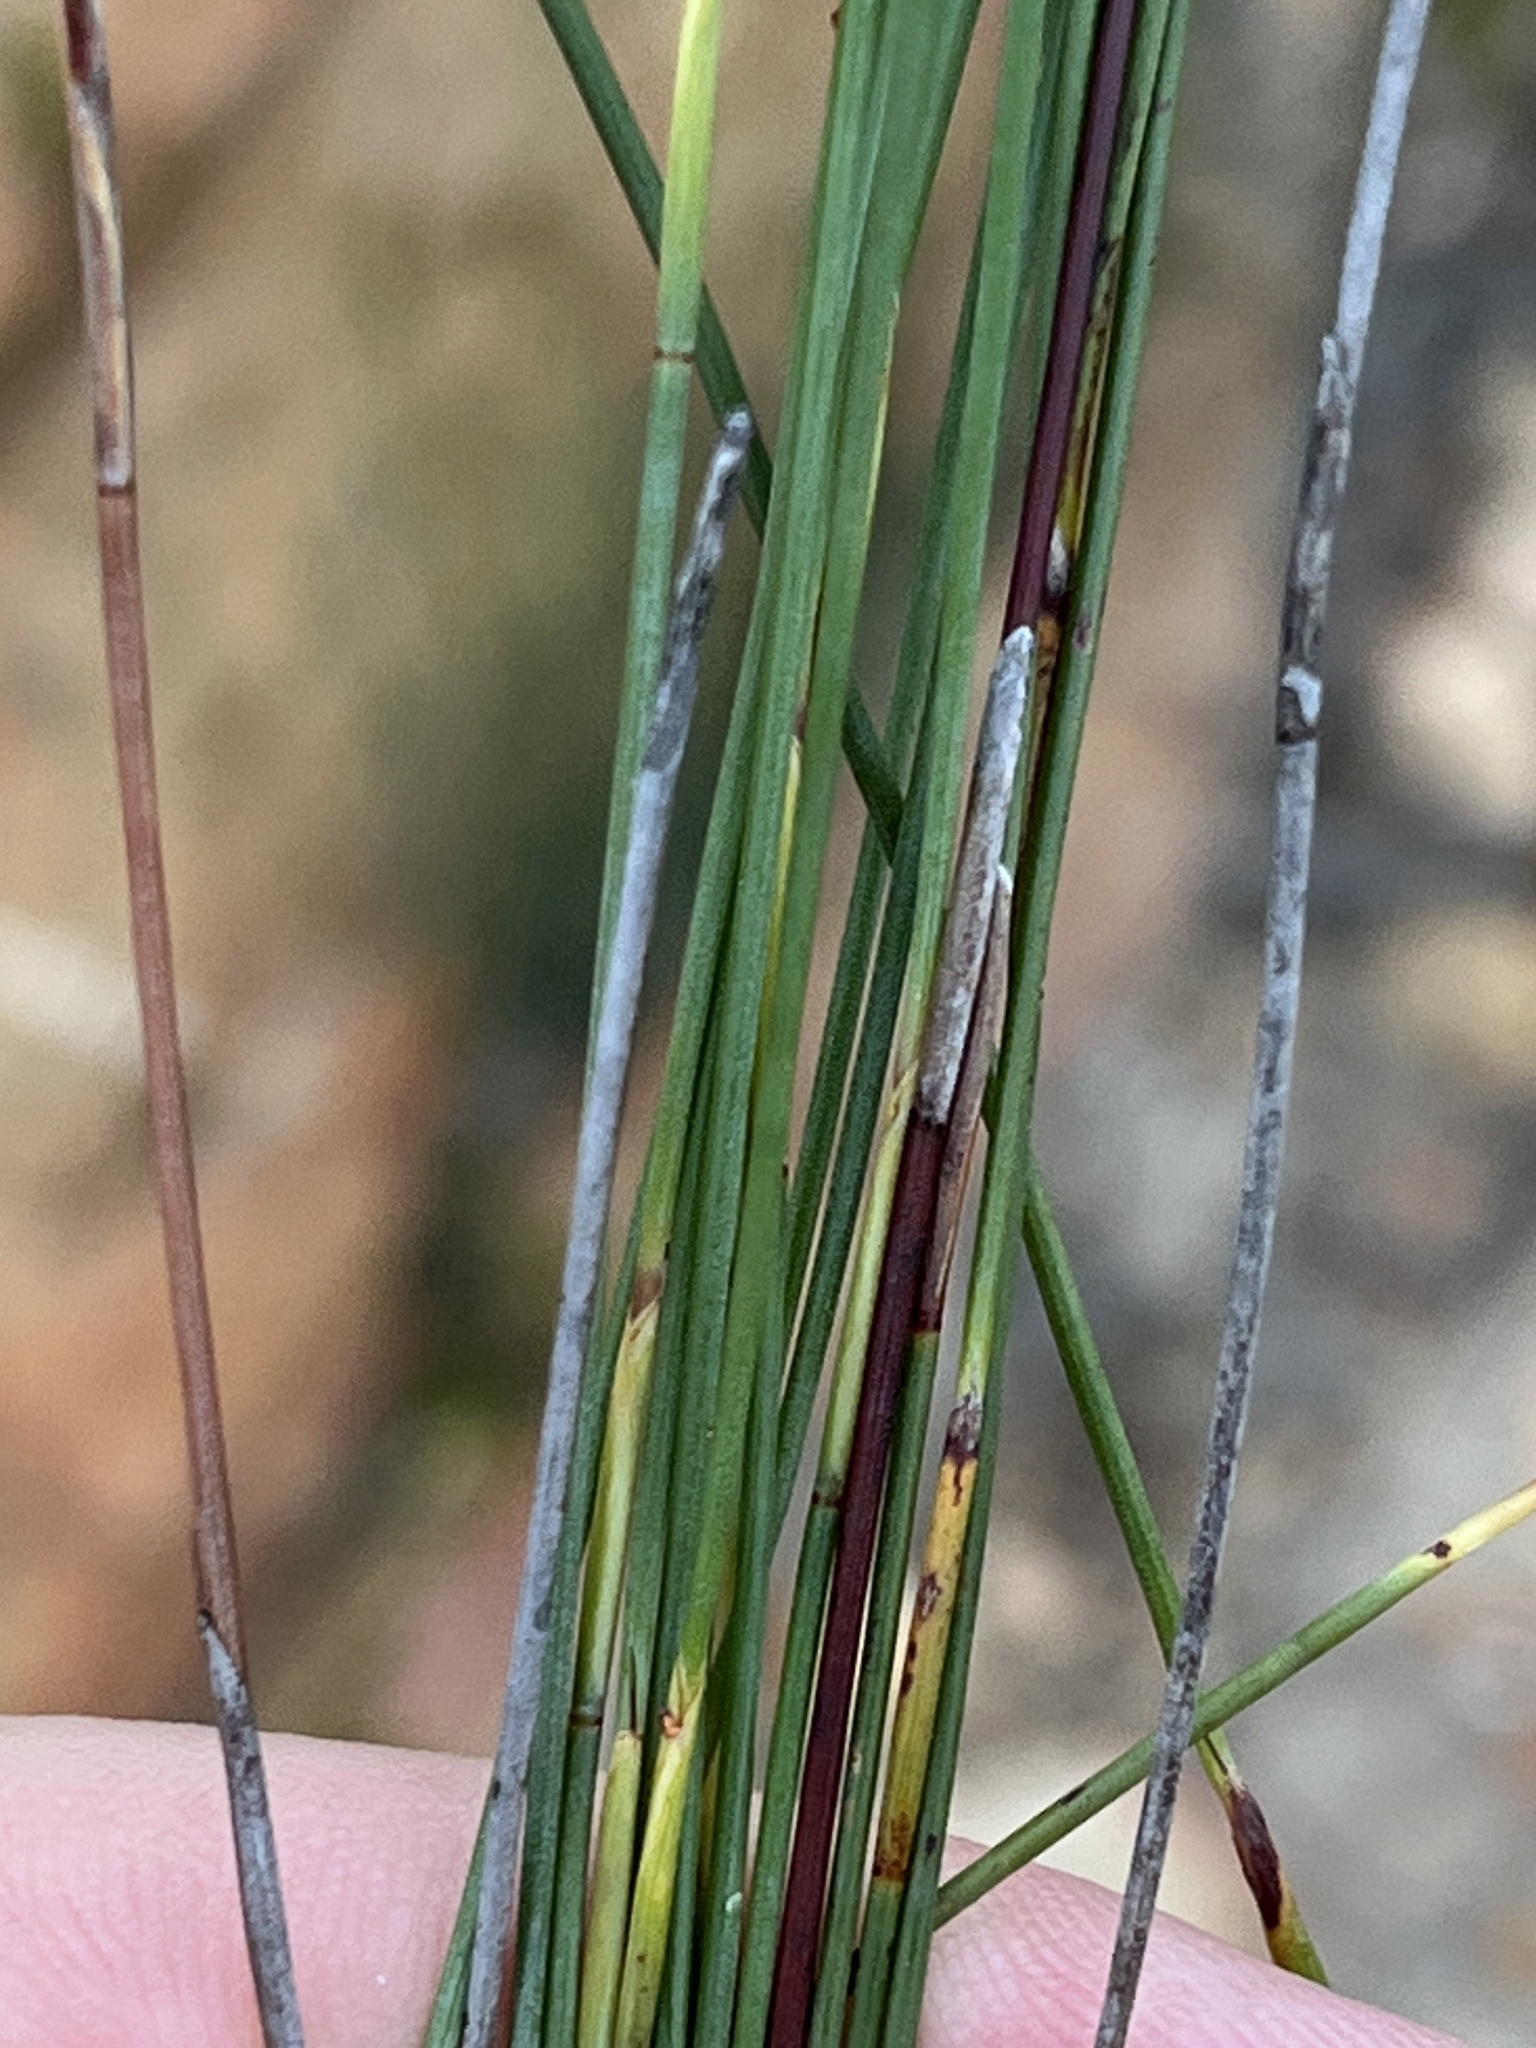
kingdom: Plantae
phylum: Tracheophyta
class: Liliopsida
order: Poales
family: Restionaceae
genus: Hypodiscus
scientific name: Hypodiscus striatus
